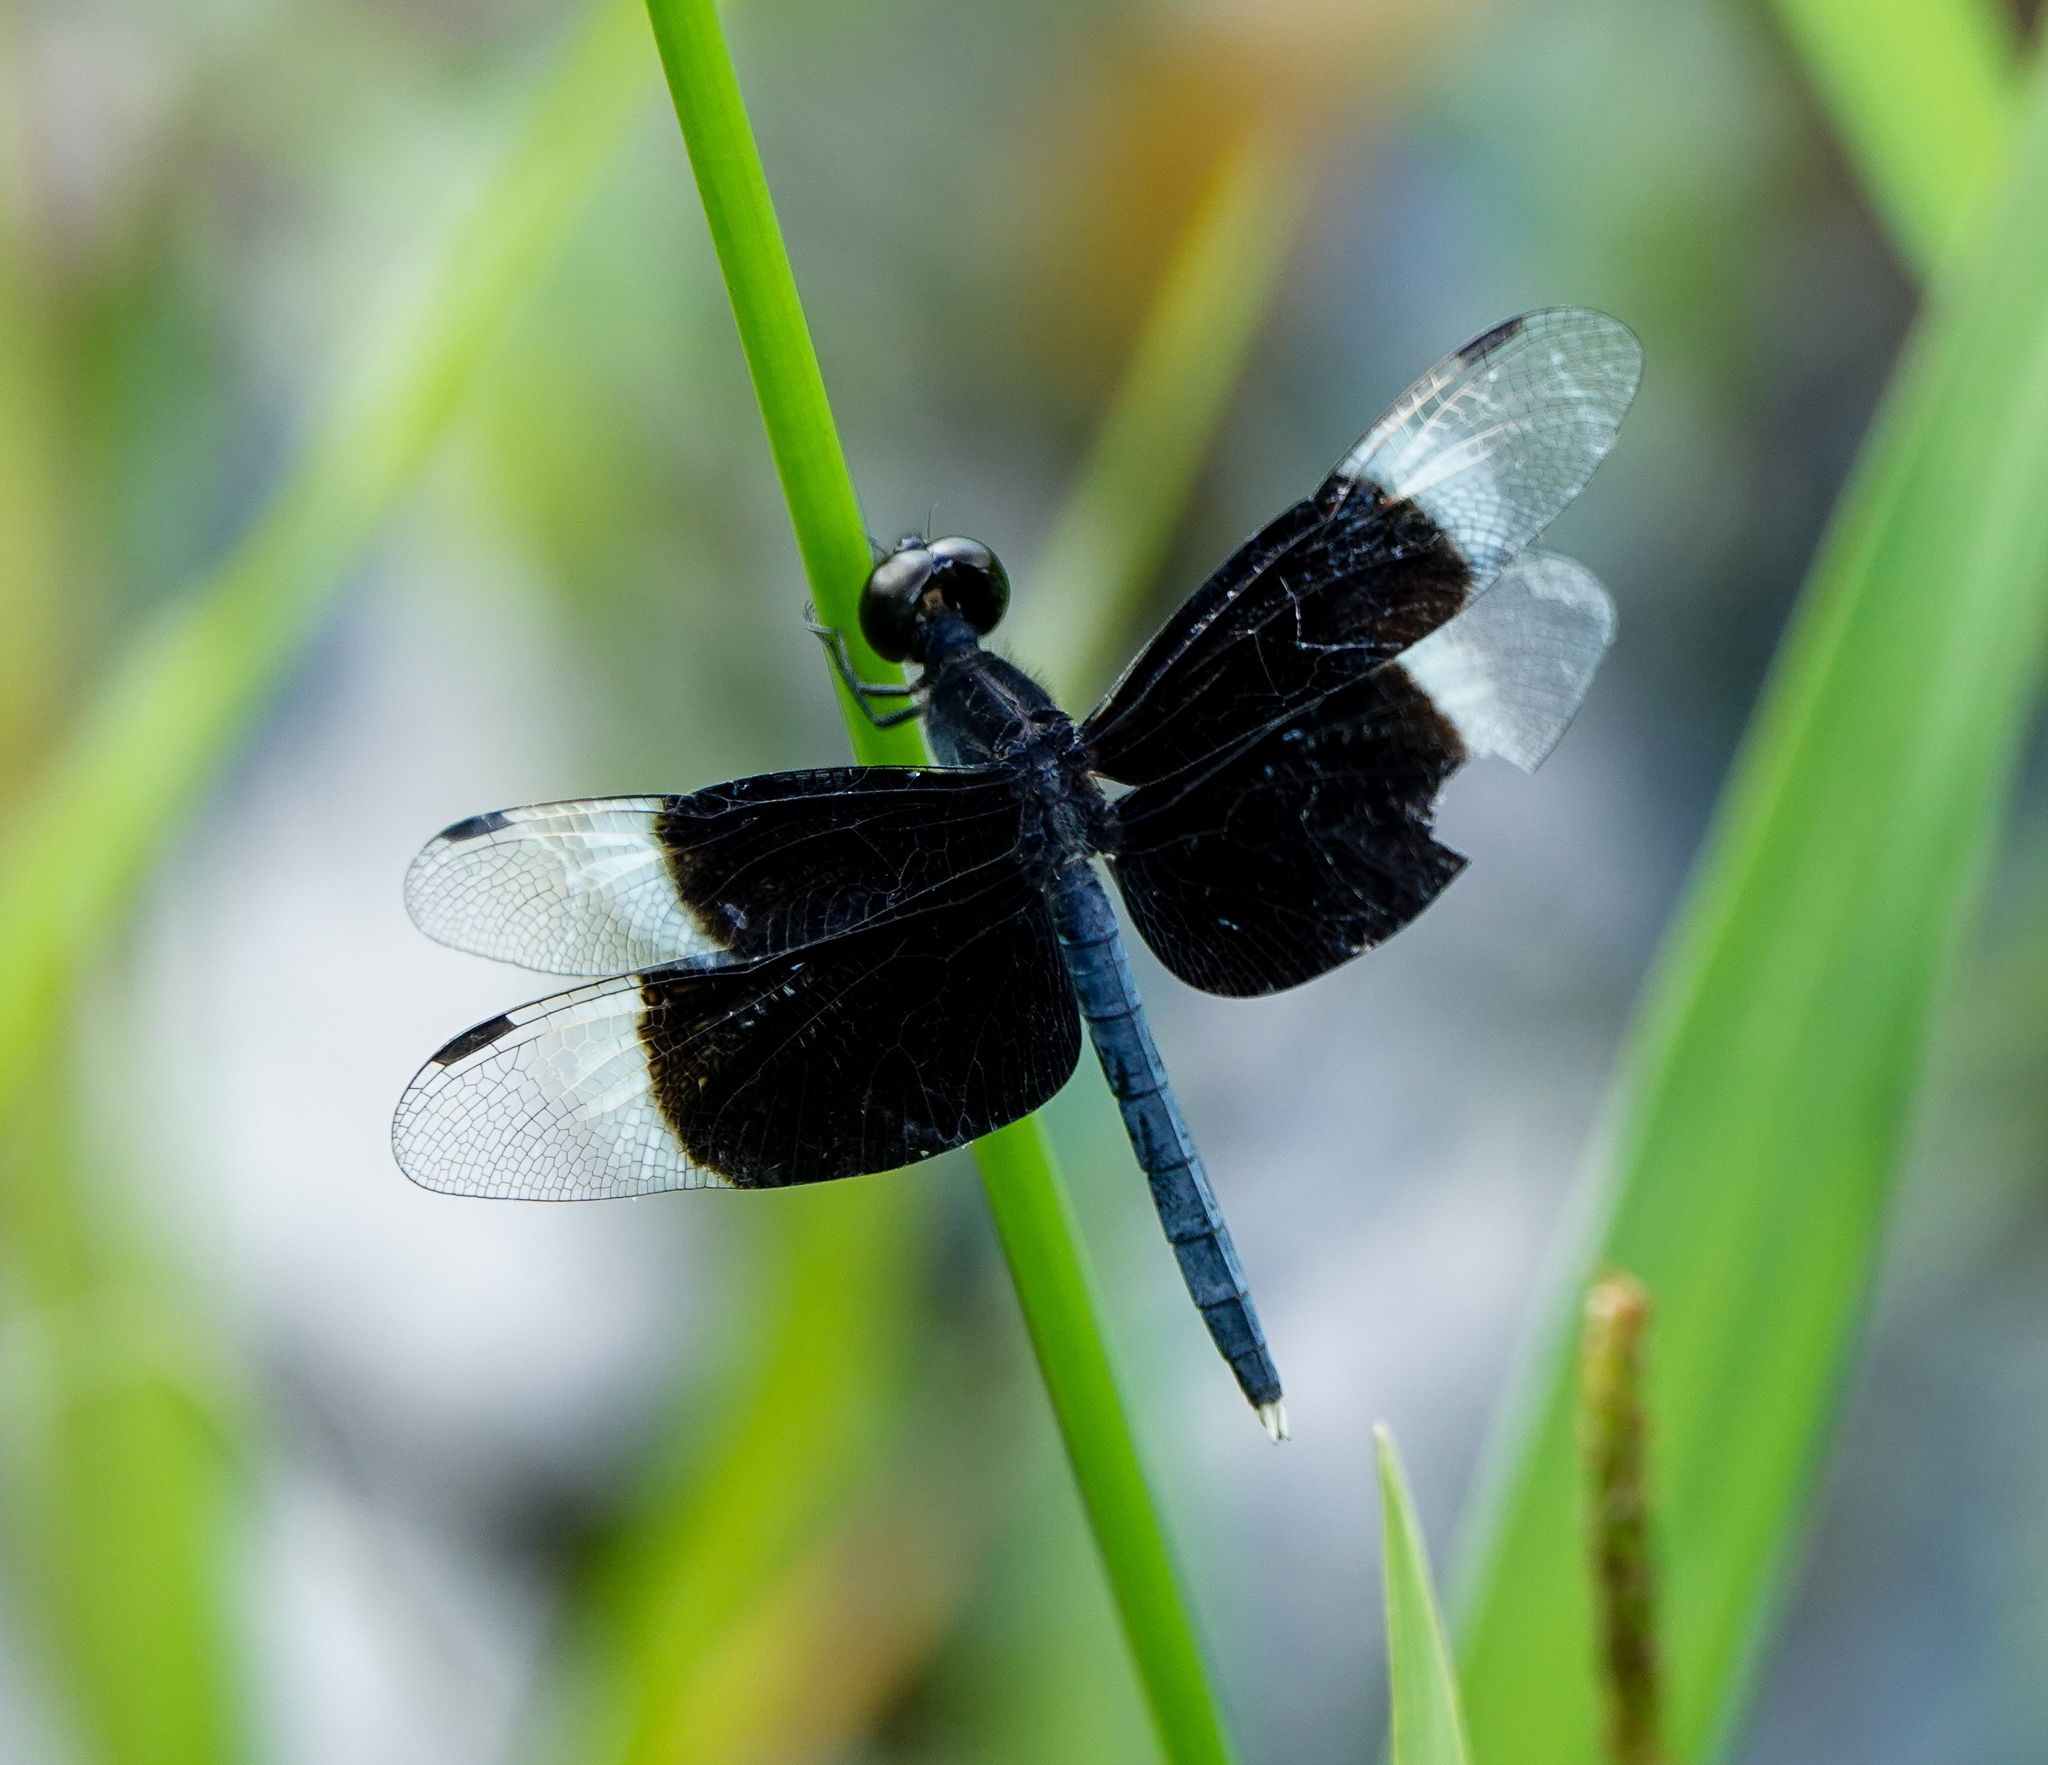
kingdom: Animalia
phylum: Arthropoda
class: Insecta
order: Odonata
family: Libellulidae
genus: Neurothemis
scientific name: Neurothemis tullia
